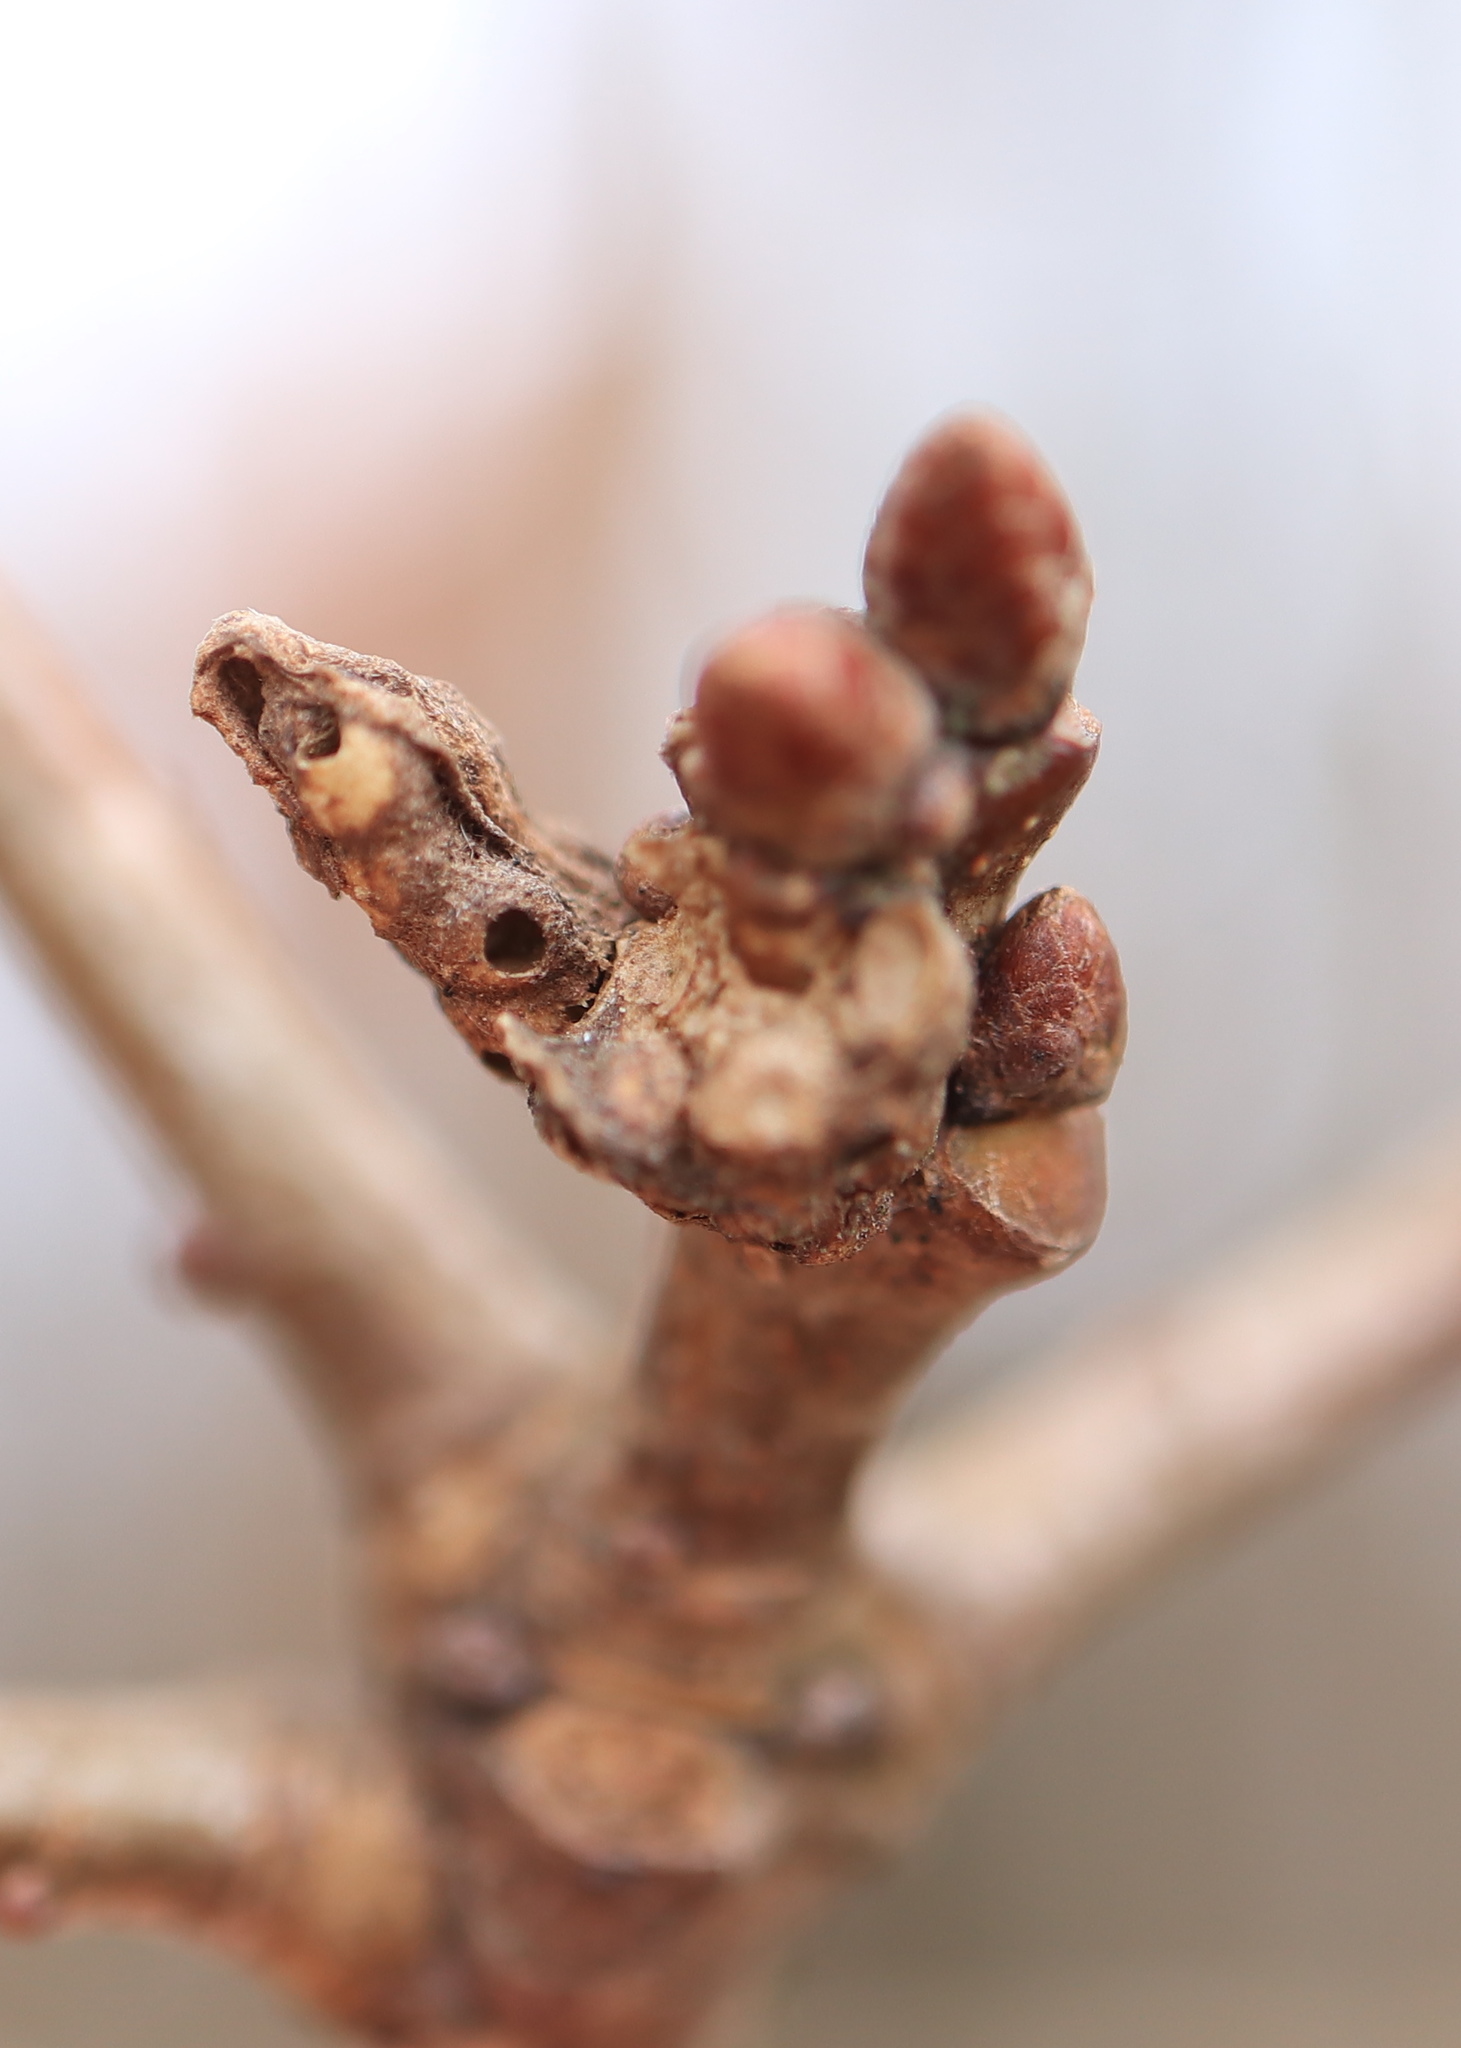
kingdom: Animalia
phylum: Arthropoda
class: Insecta
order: Hymenoptera
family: Cynipidae
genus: Neuroterus
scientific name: Neuroterus minutulus
